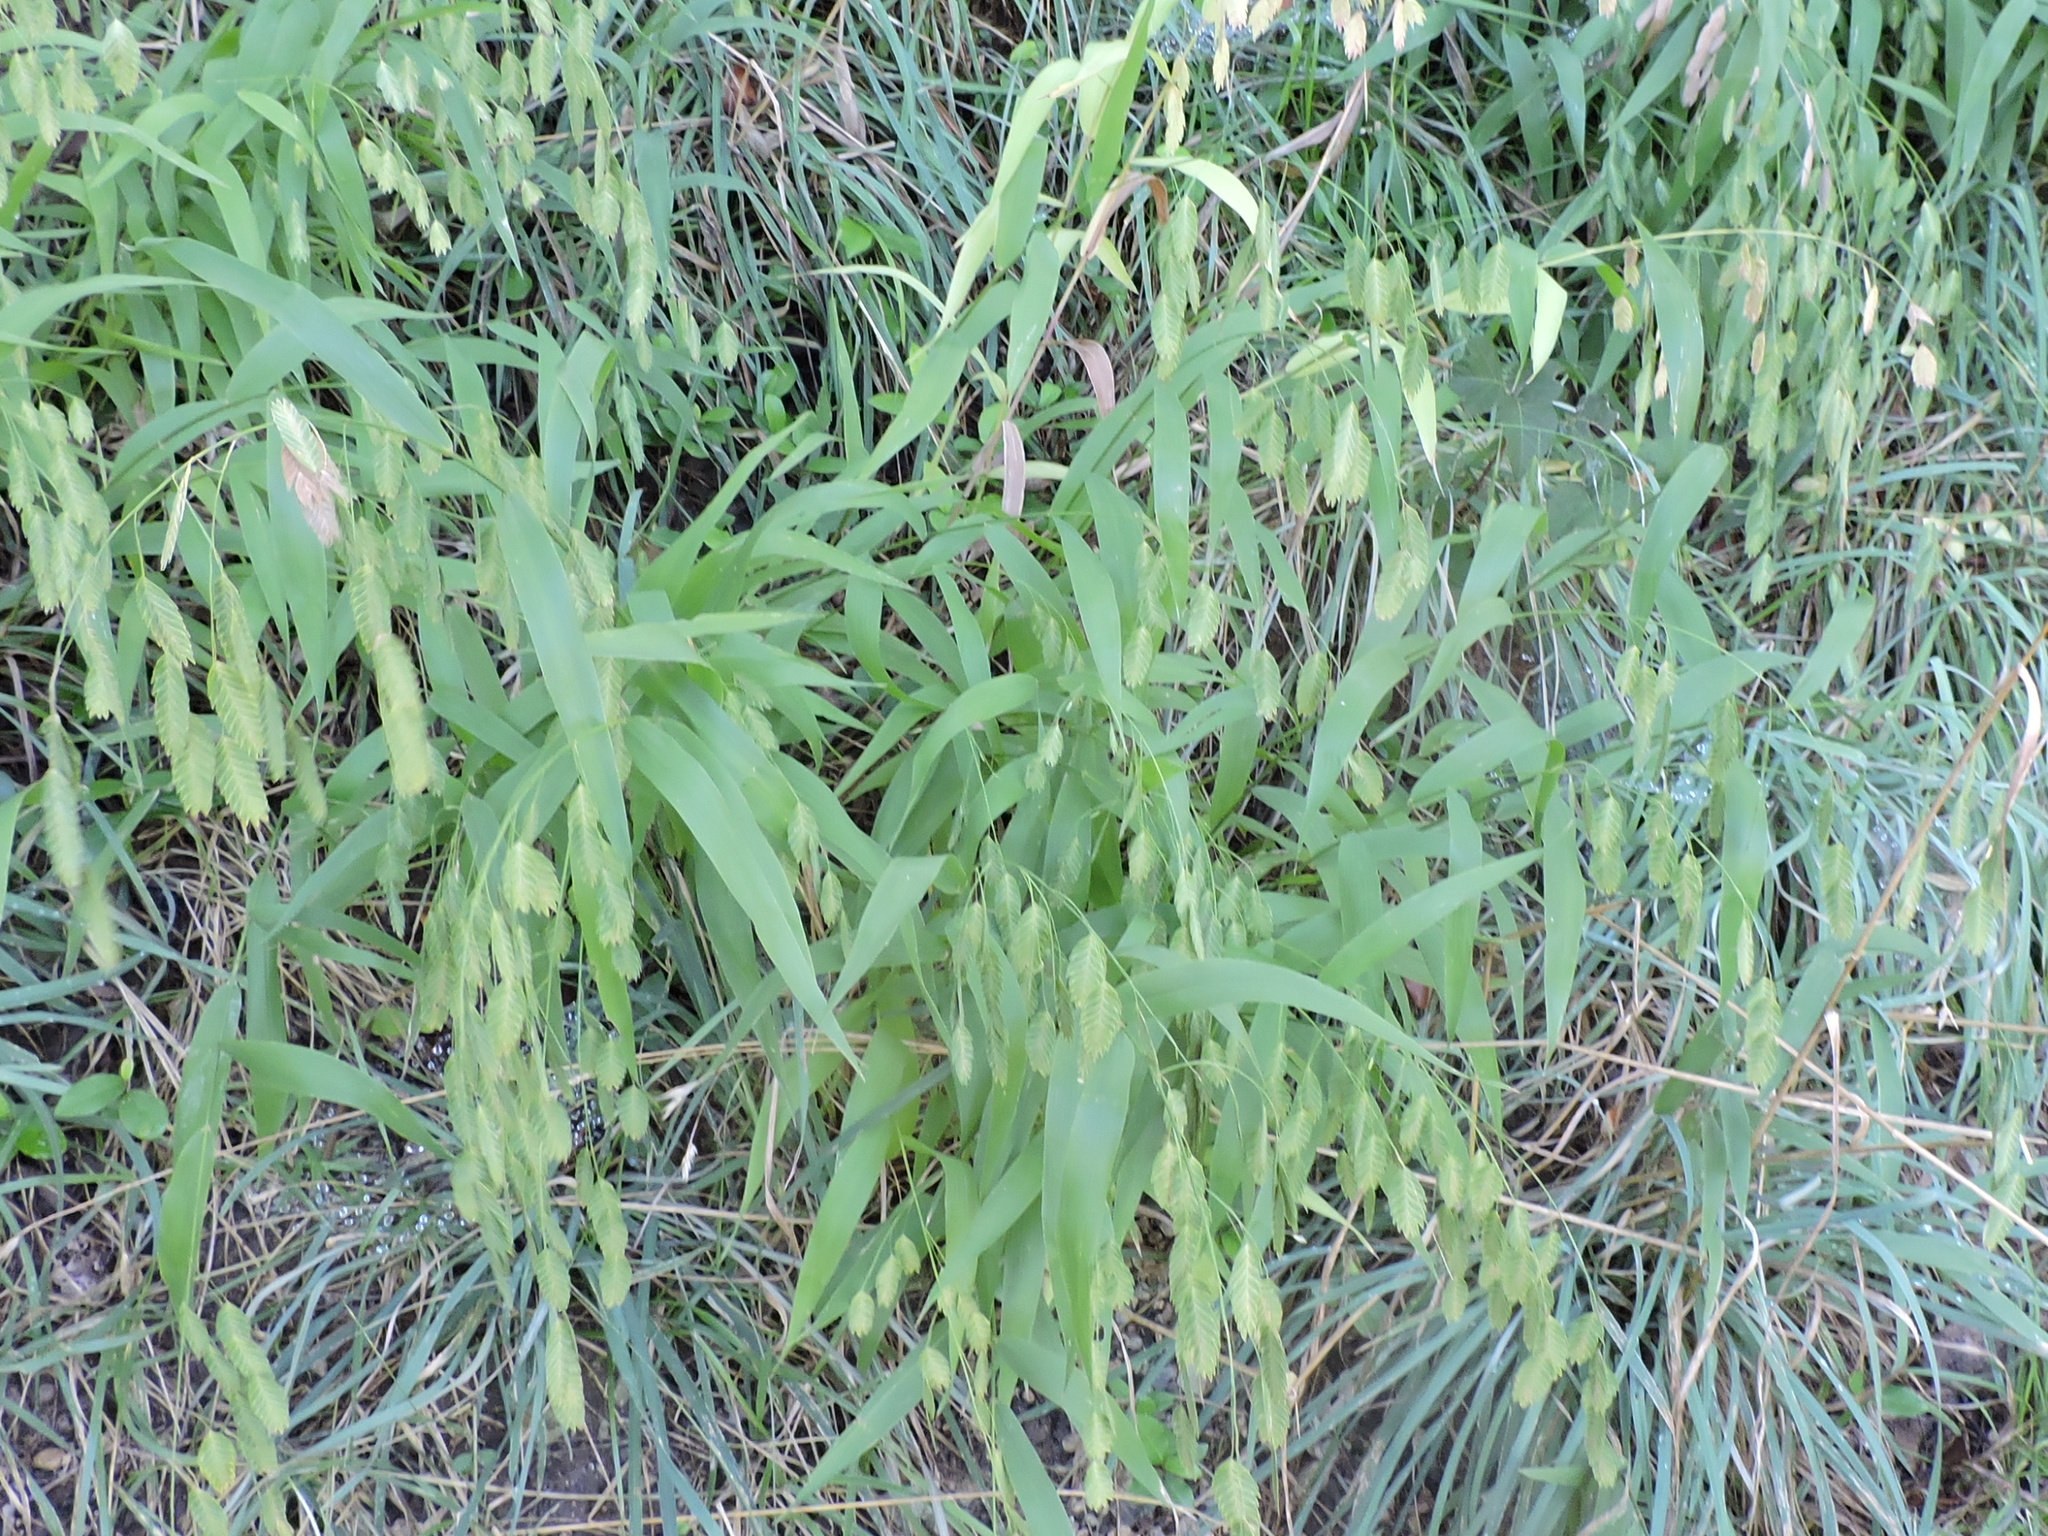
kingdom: Plantae
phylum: Tracheophyta
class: Liliopsida
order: Poales
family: Poaceae
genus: Chasmanthium
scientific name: Chasmanthium latifolium
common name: Broad-leaved chasmanthium
